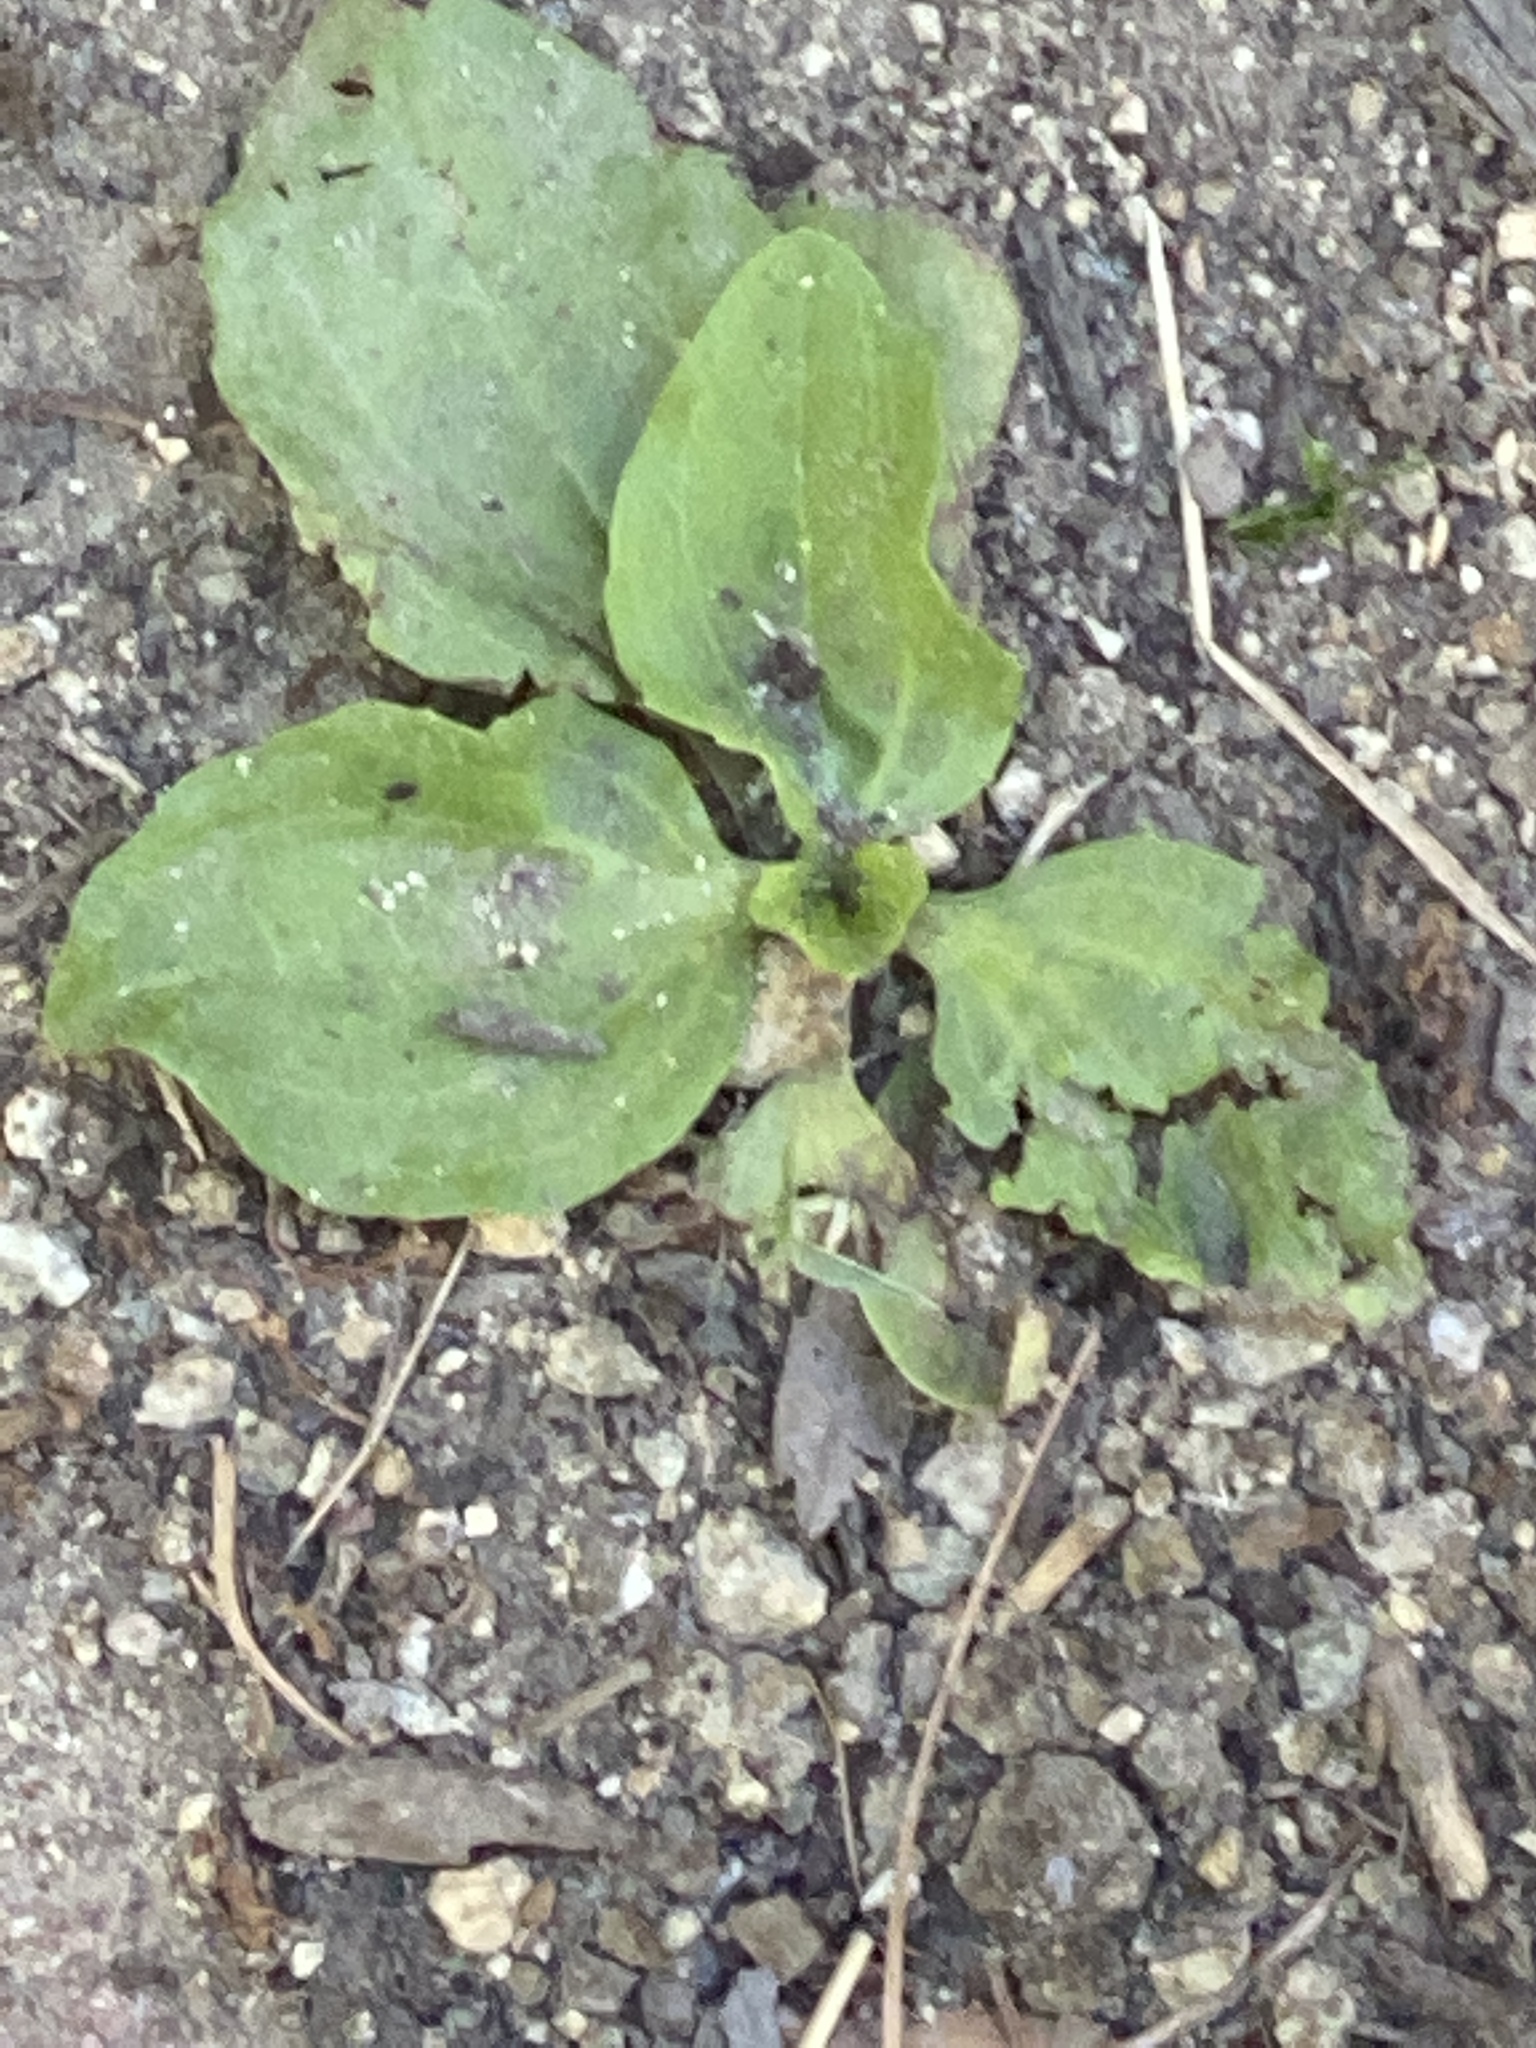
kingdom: Plantae
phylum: Tracheophyta
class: Magnoliopsida
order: Lamiales
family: Plantaginaceae
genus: Plantago
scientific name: Plantago major
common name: Common plantain
